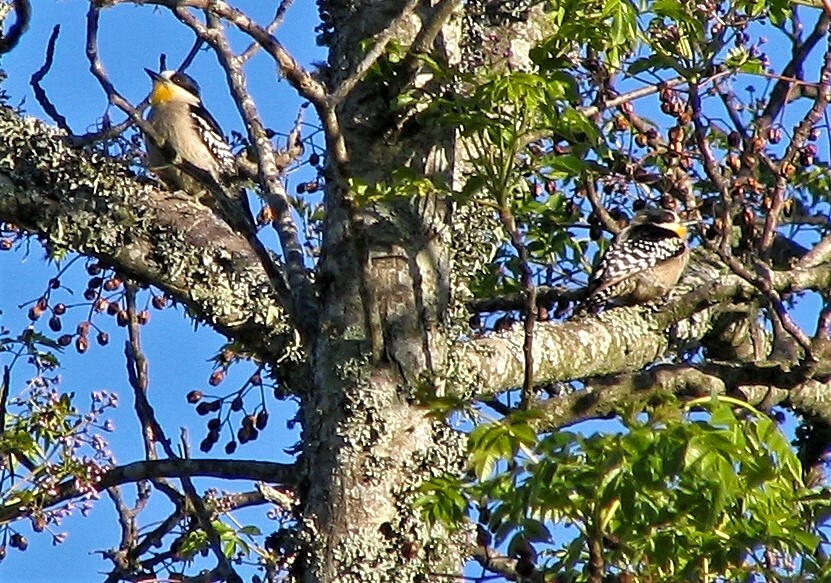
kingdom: Animalia
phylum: Chordata
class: Aves
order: Piciformes
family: Picidae
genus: Melanerpes
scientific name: Melanerpes cactorum
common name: White-fronted woodpecker
